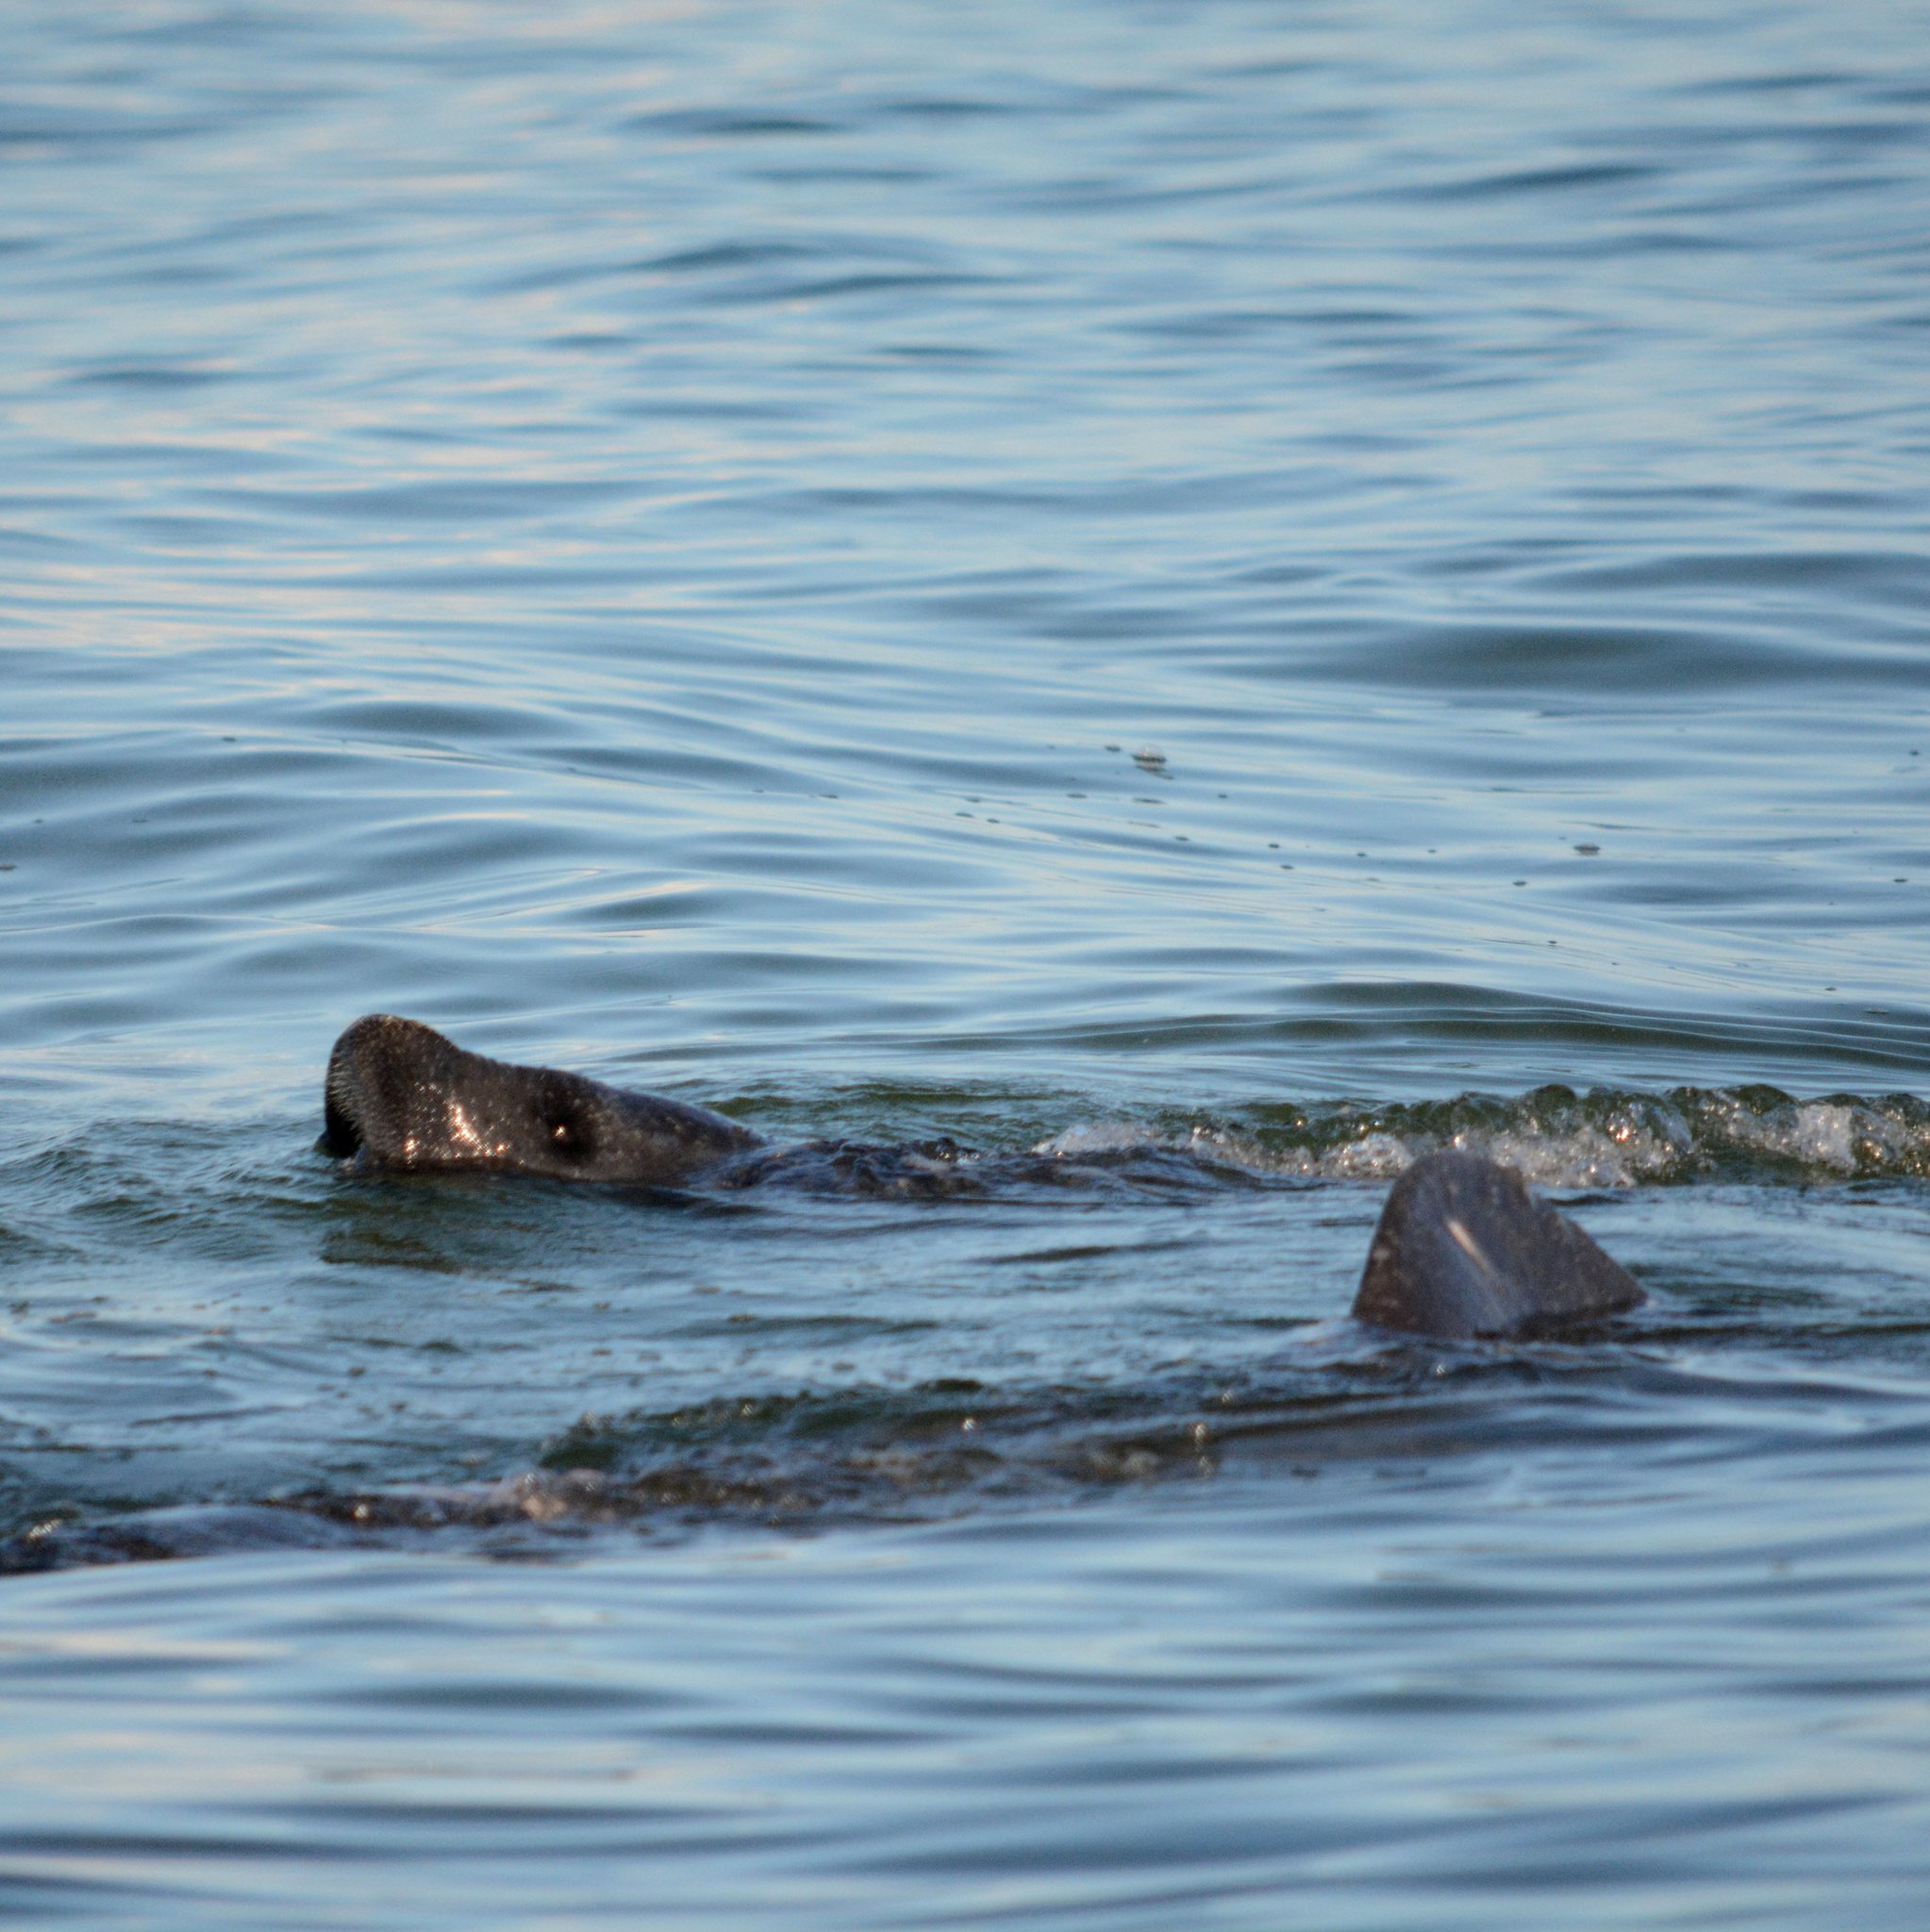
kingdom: Animalia
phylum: Chordata
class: Mammalia
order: Sirenia
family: Trichechidae
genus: Trichechus
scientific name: Trichechus manatus
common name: West indian manatee
